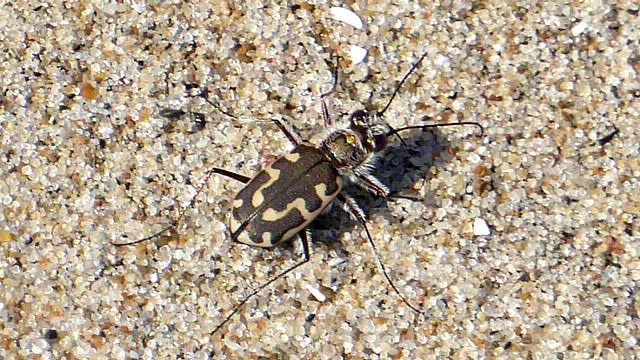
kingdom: Animalia
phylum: Arthropoda
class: Insecta
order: Coleoptera
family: Carabidae
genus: Cicindela
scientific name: Cicindela hirticollis
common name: Hairy-necked tiger beetle
